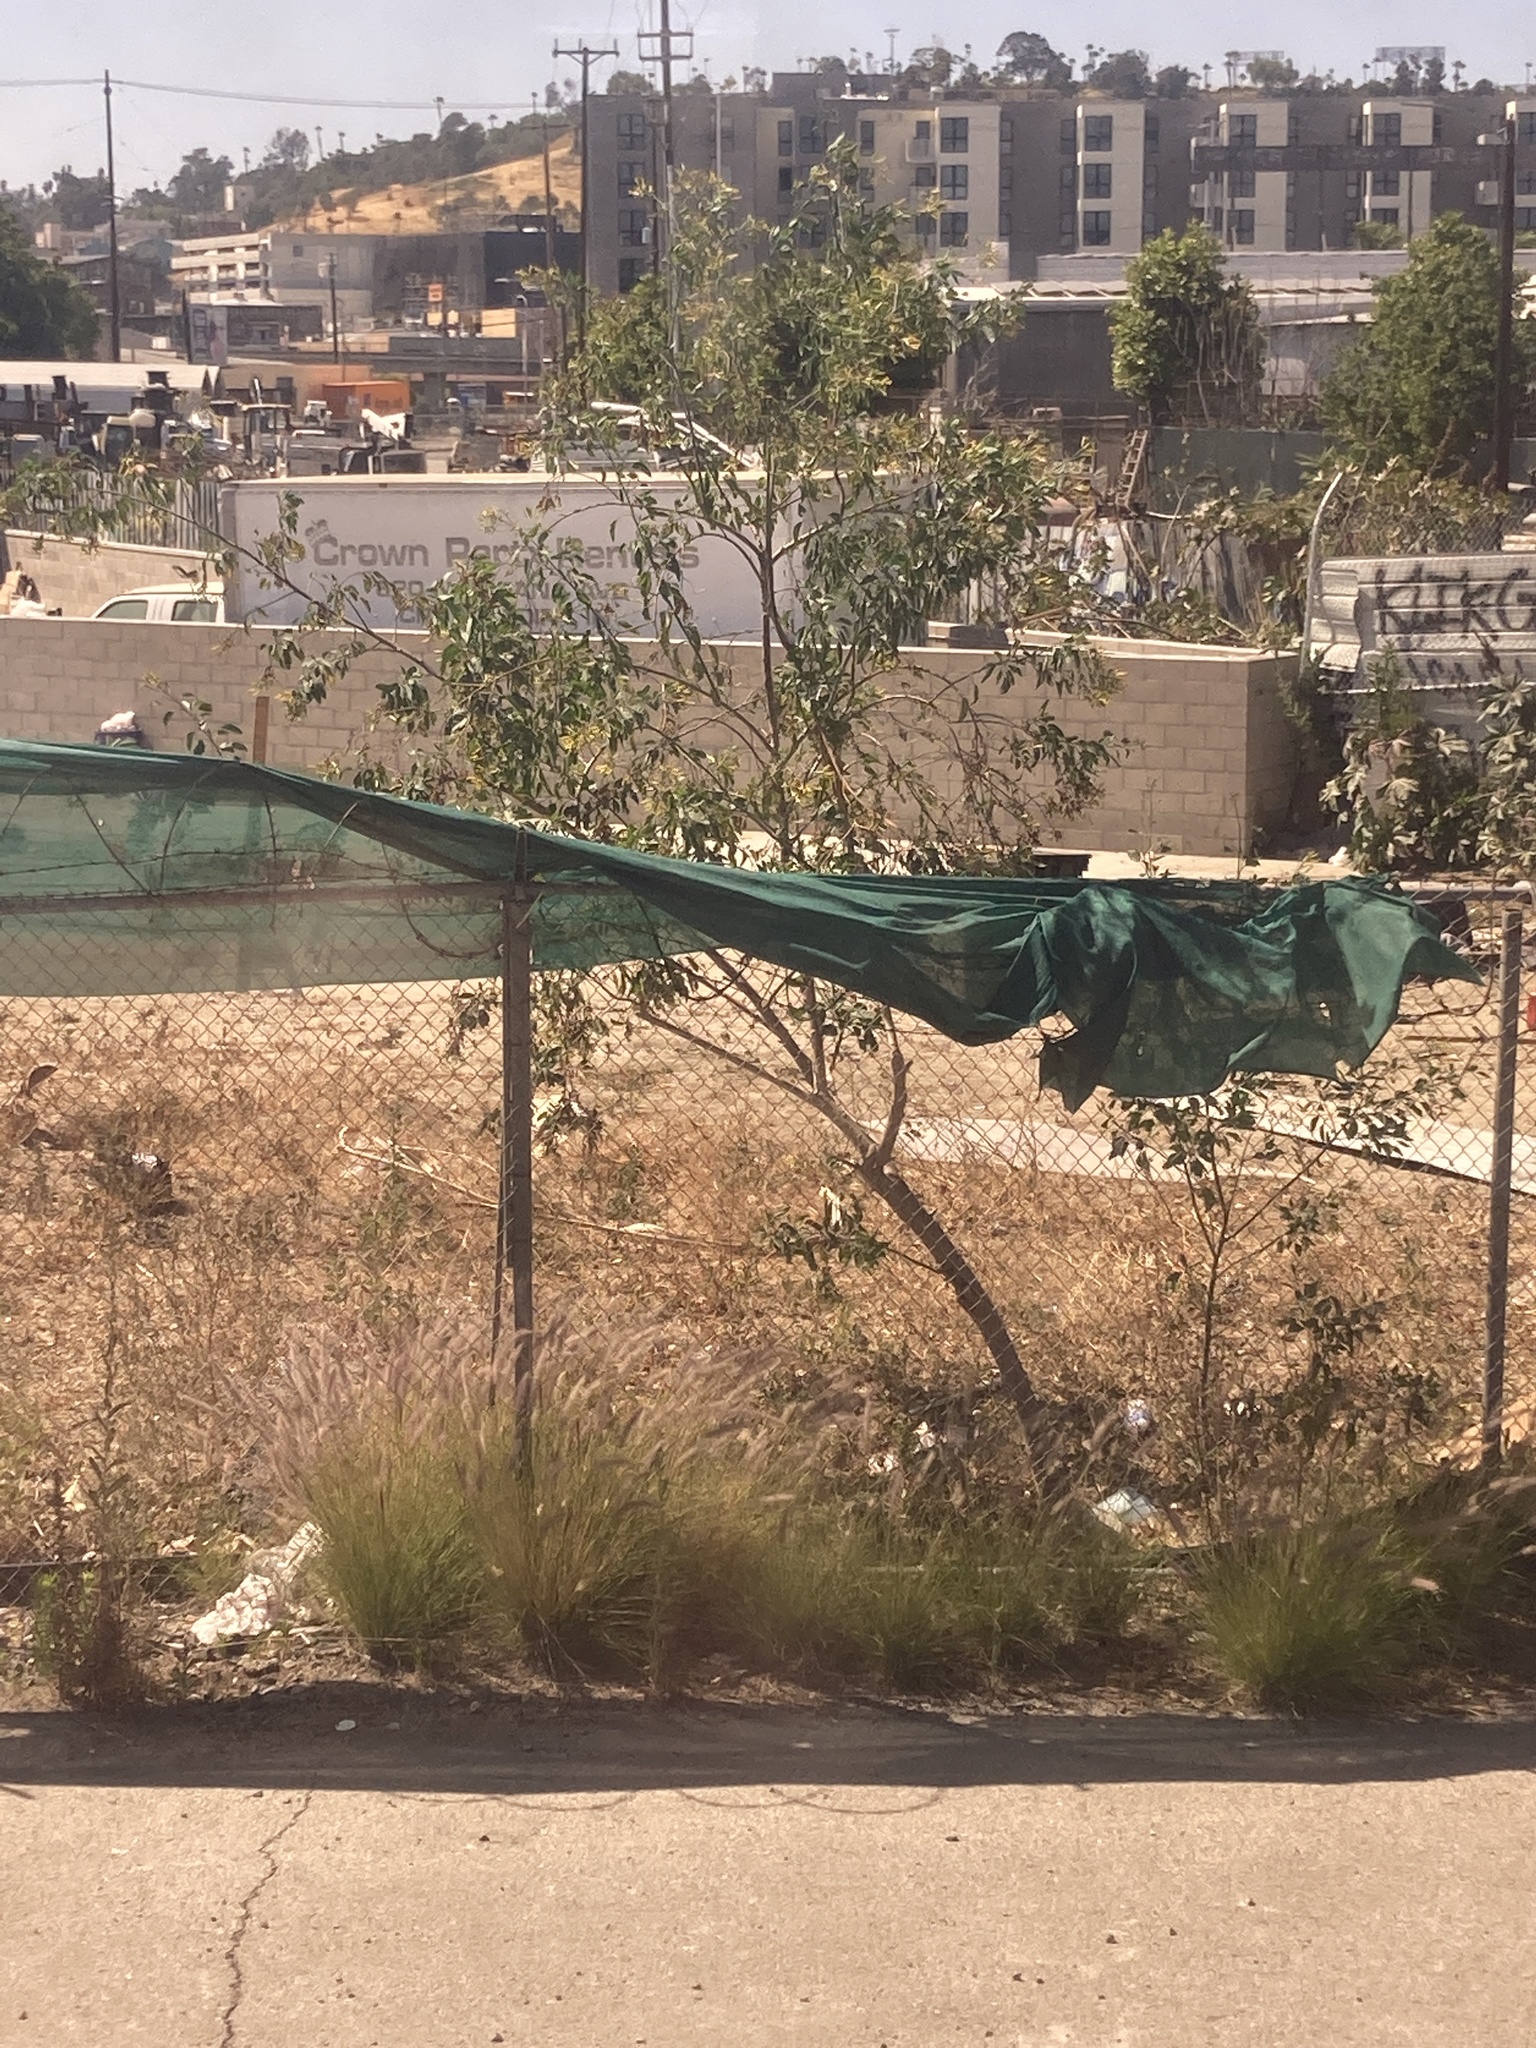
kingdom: Plantae
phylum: Tracheophyta
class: Magnoliopsida
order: Solanales
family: Solanaceae
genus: Nicotiana
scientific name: Nicotiana glauca
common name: Tree tobacco
